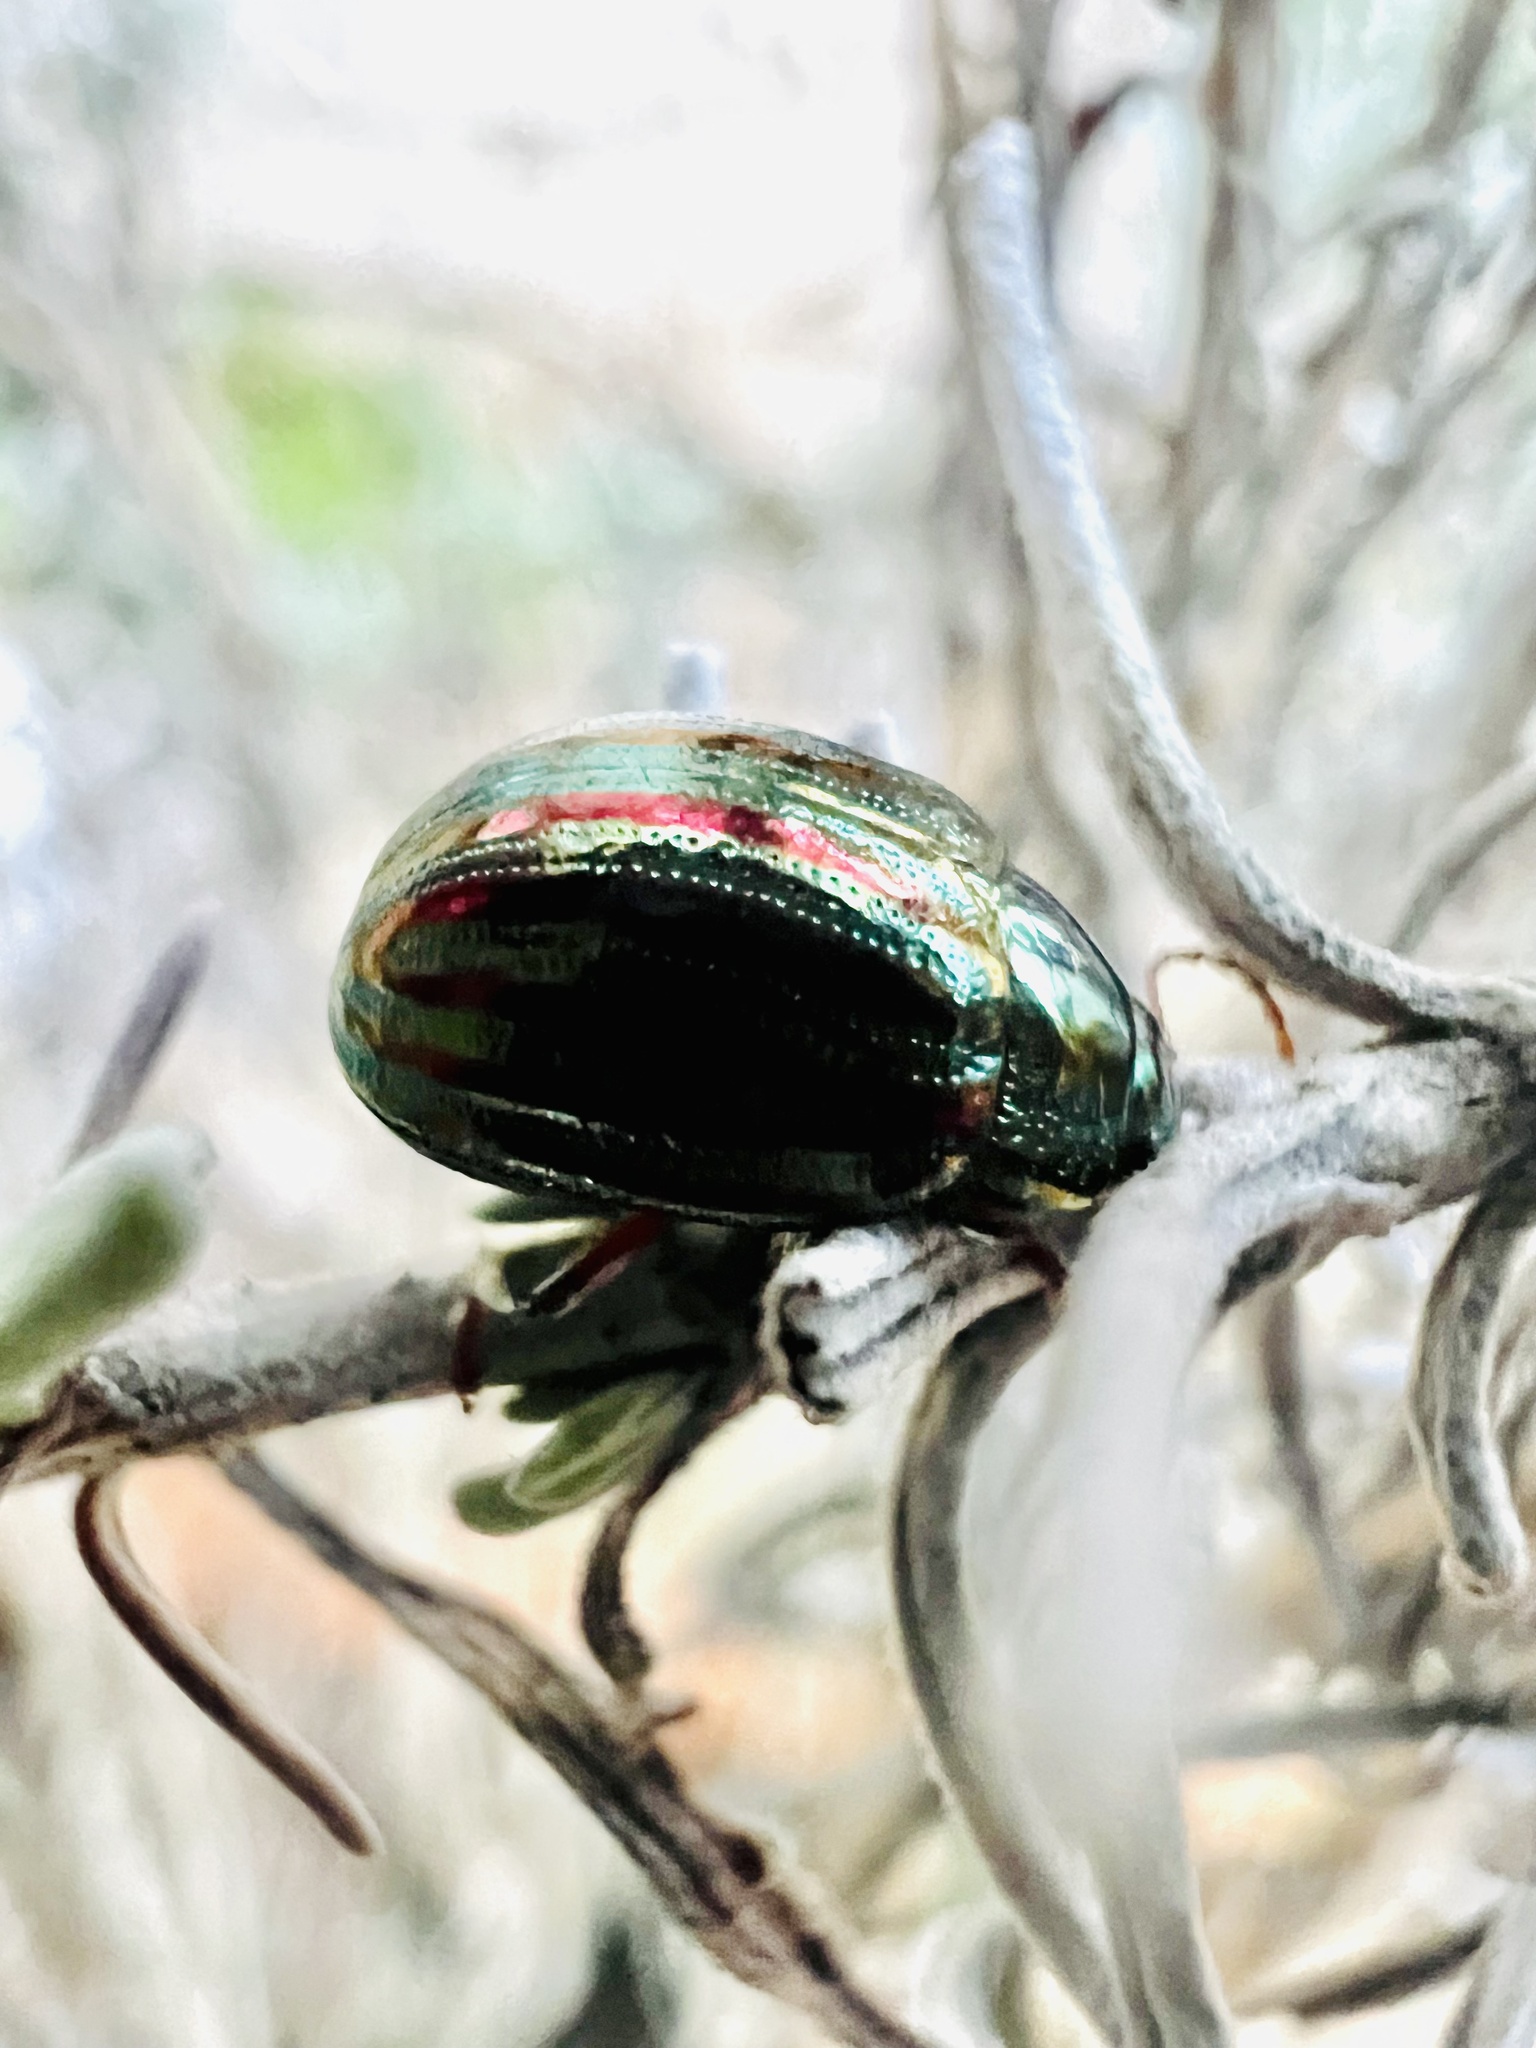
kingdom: Animalia
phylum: Arthropoda
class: Insecta
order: Coleoptera
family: Chrysomelidae
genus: Chrysolina
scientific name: Chrysolina americana
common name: Rosemary beetle
